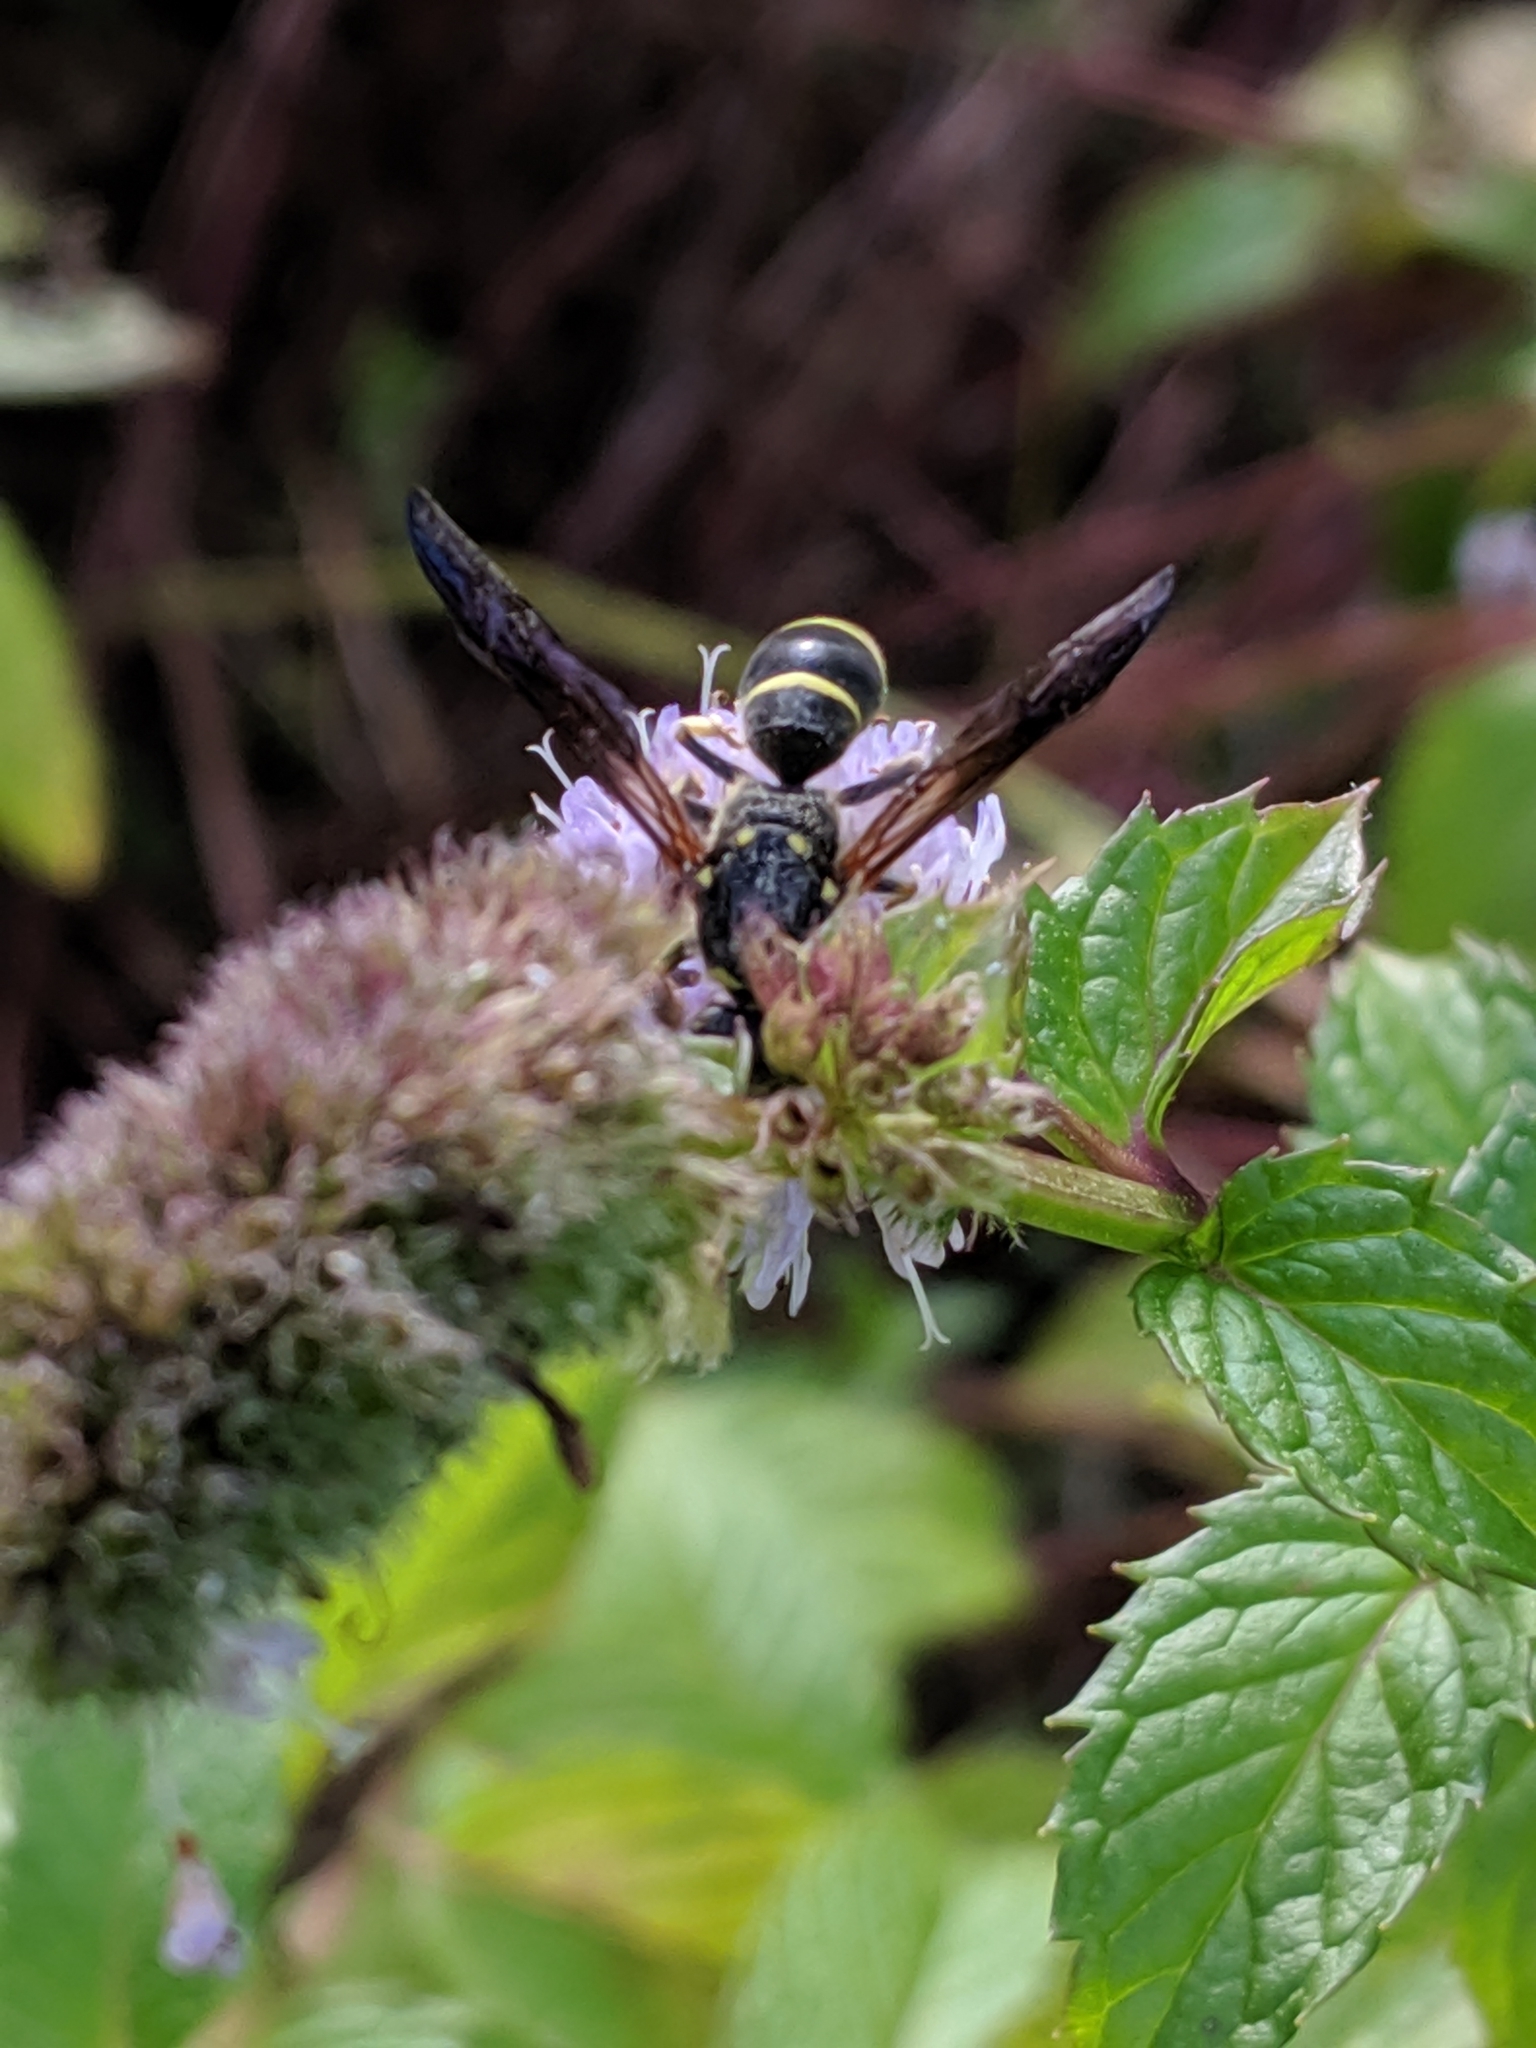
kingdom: Animalia
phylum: Arthropoda
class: Insecta
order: Hymenoptera
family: Vespidae
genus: Ancistrocerus
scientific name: Ancistrocerus
